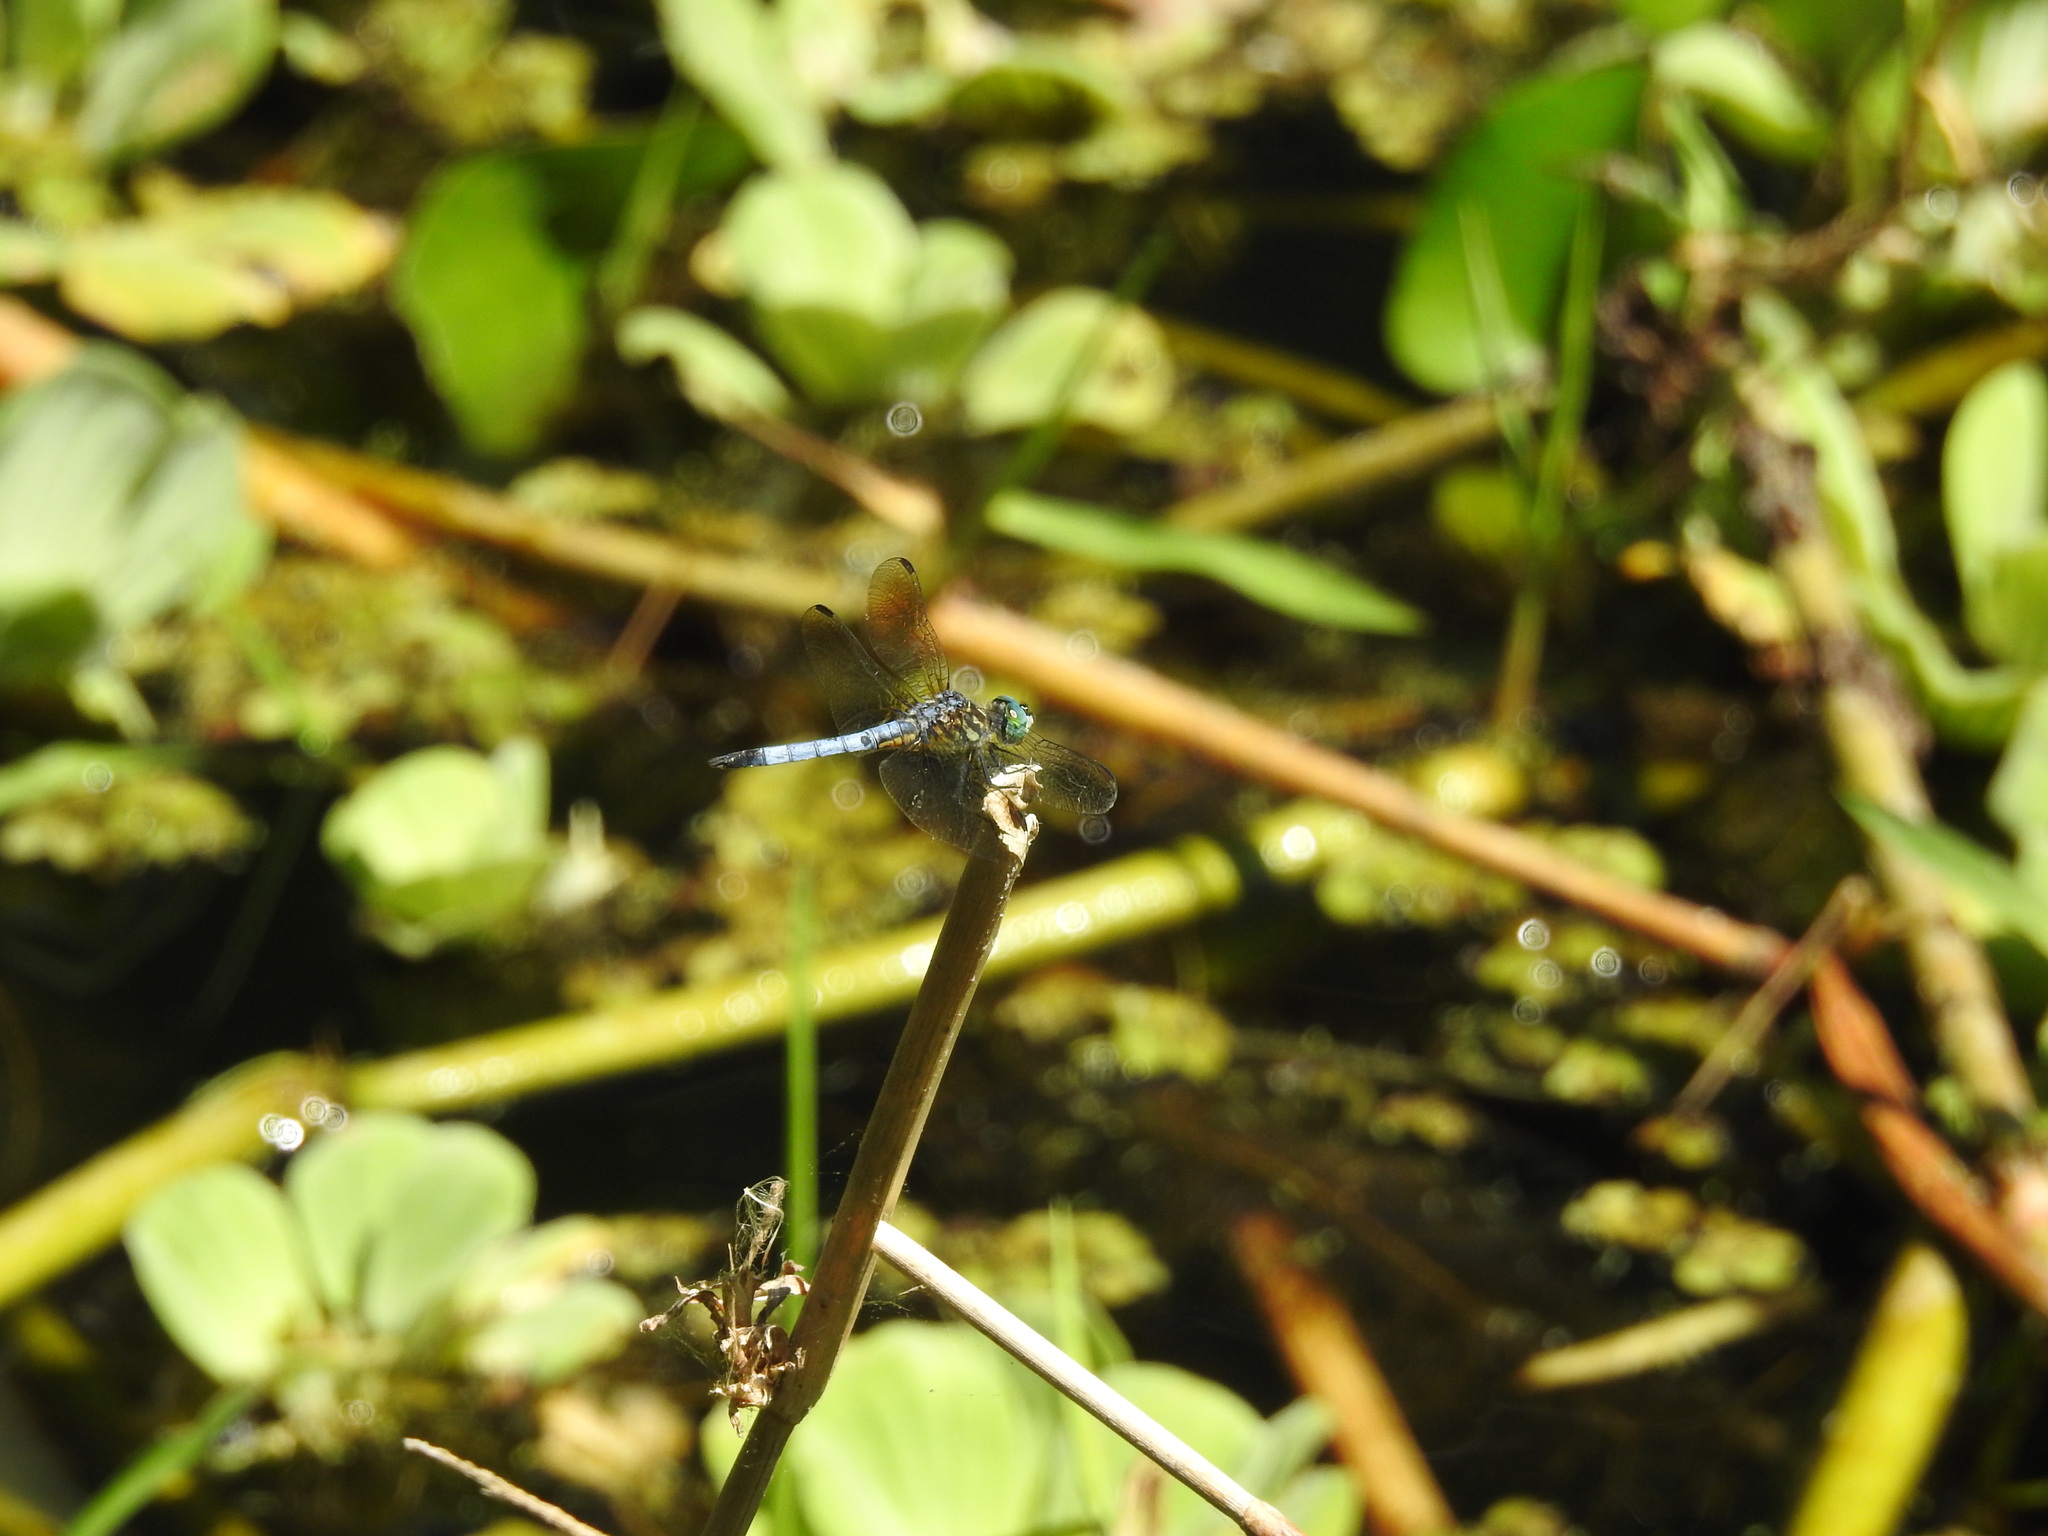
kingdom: Animalia
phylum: Arthropoda
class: Insecta
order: Odonata
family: Libellulidae
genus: Pachydiplax
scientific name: Pachydiplax longipennis
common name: Blue dasher
